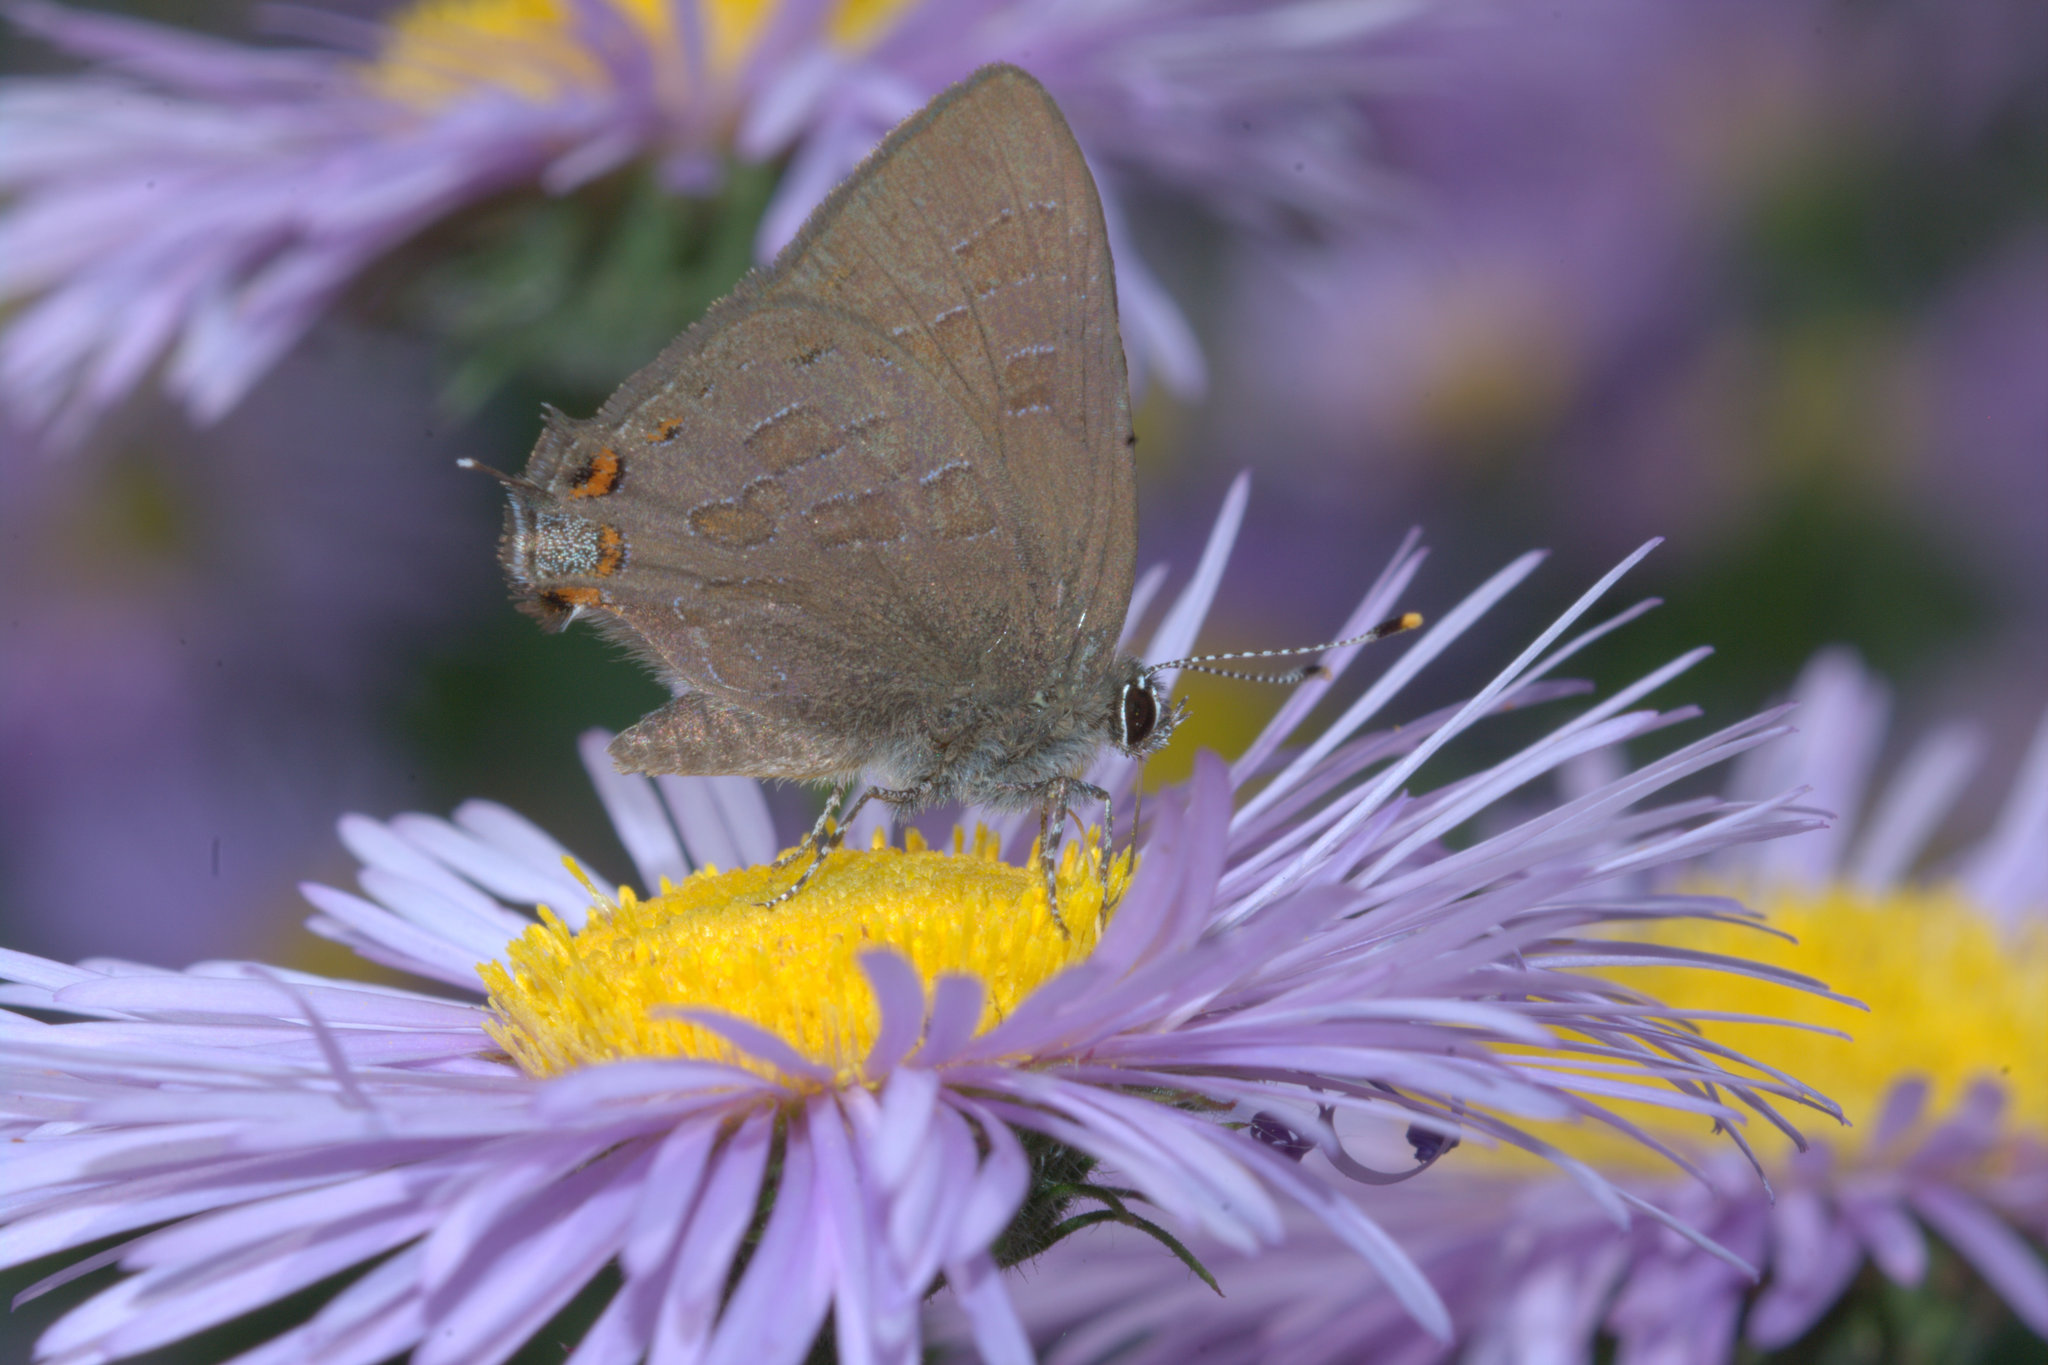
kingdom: Animalia
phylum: Arthropoda
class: Insecta
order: Lepidoptera
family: Lycaenidae
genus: Satyrium
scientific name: Satyrium liparops
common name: Striped hairstreak
